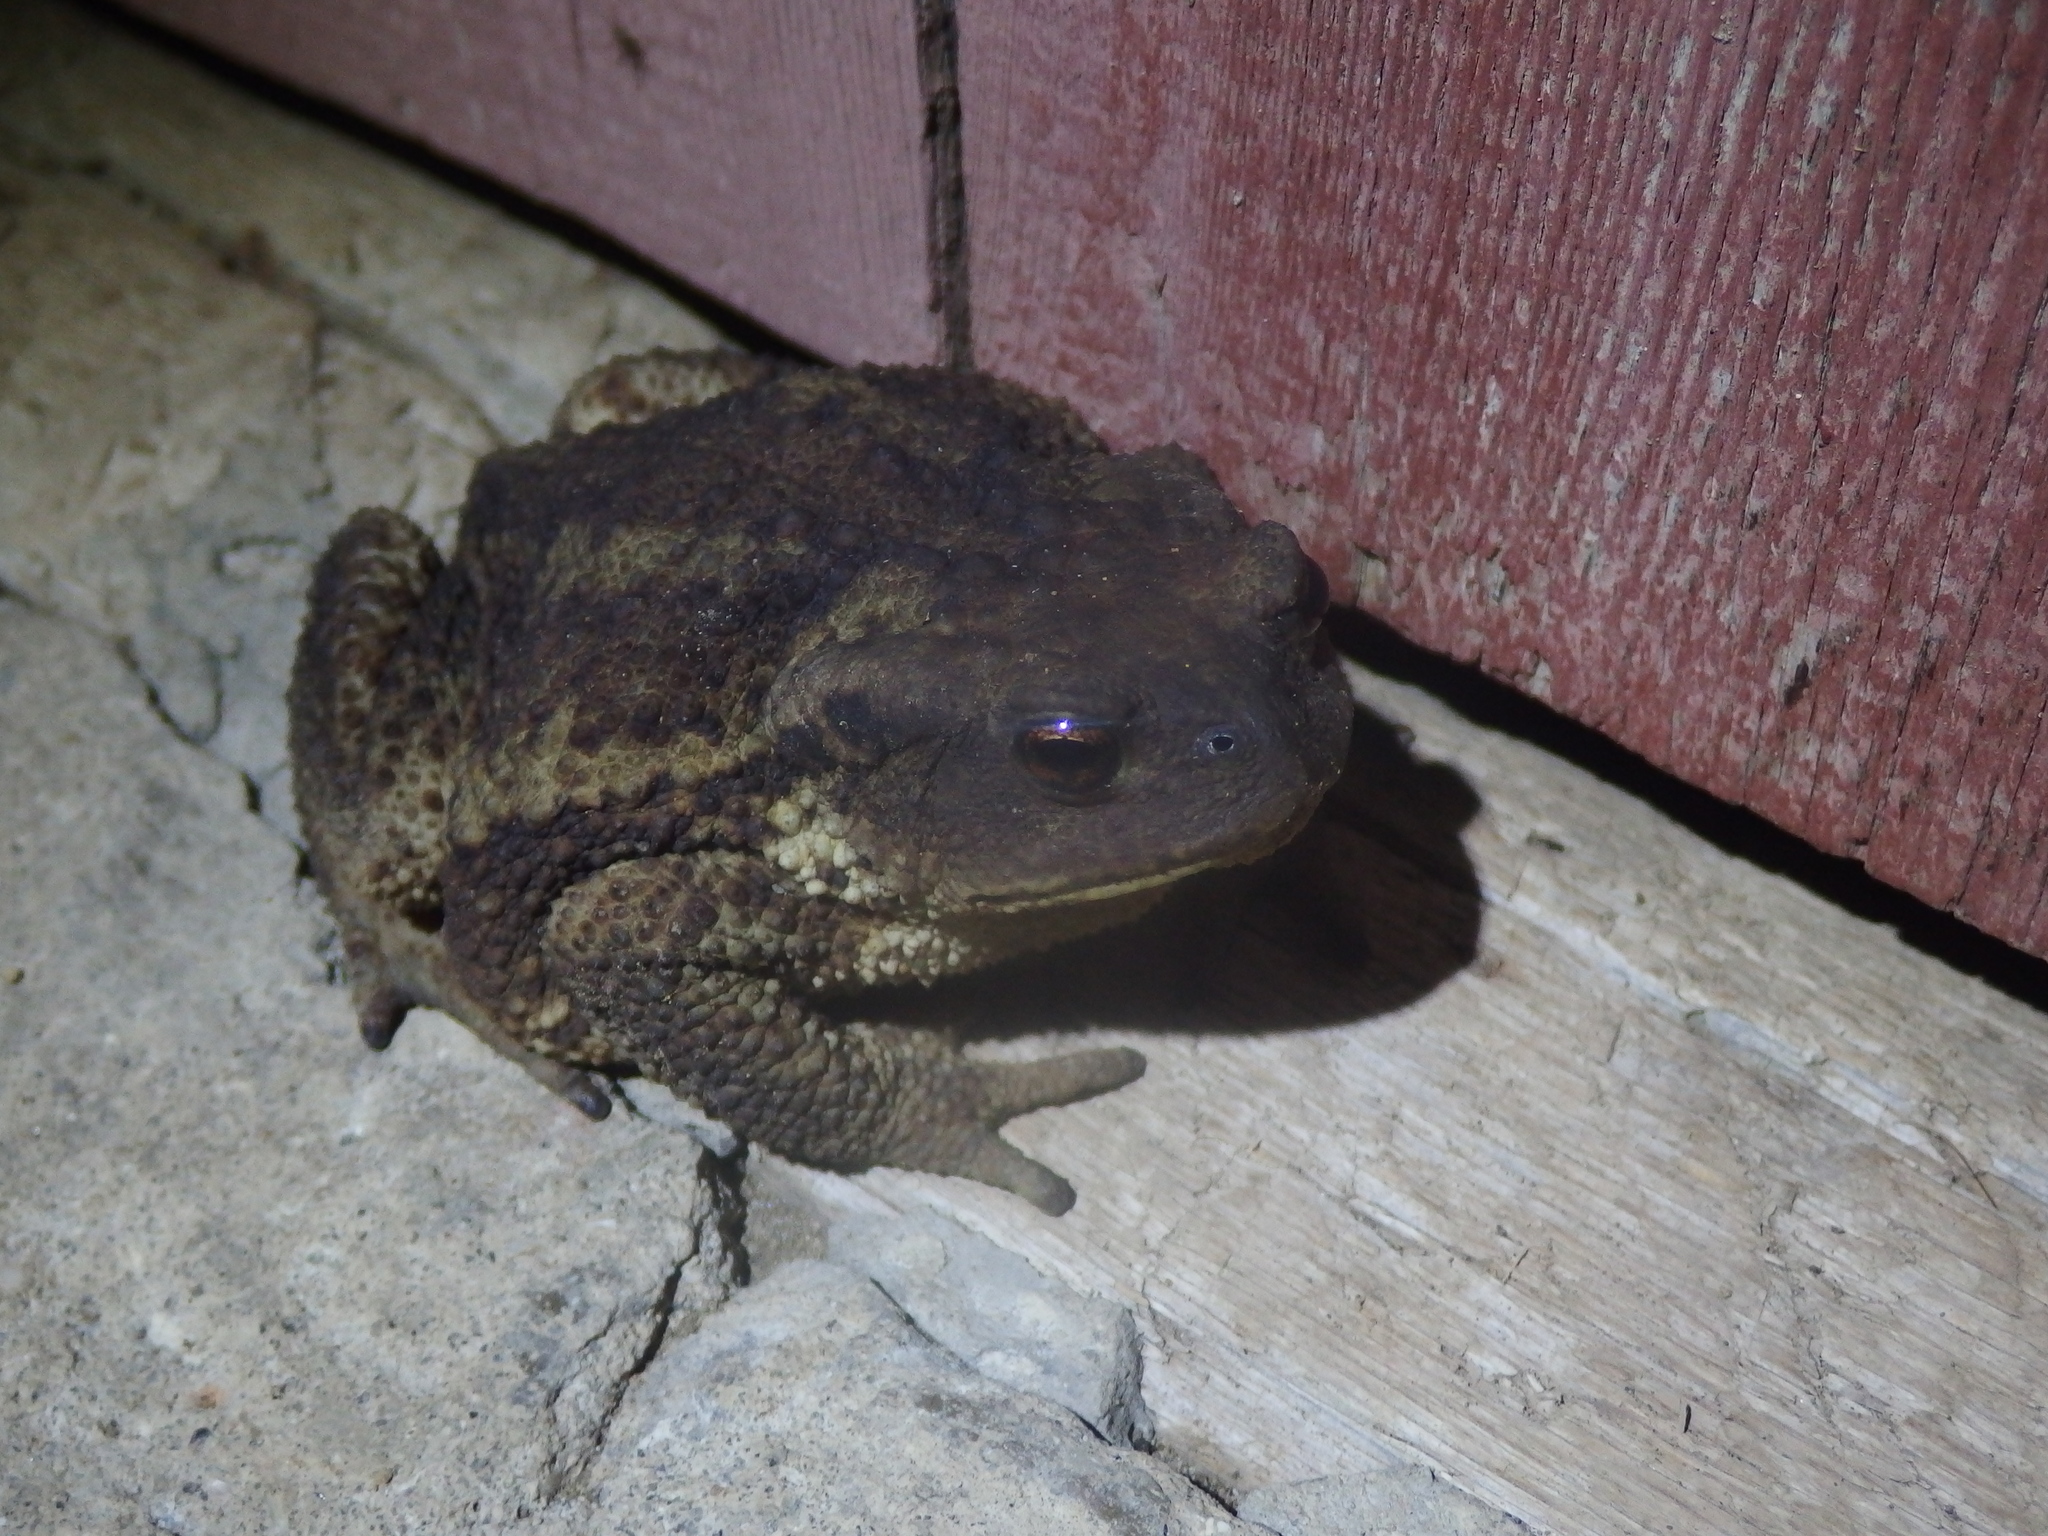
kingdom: Animalia
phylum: Chordata
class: Amphibia
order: Anura
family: Bufonidae
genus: Bufo
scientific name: Bufo verrucosissimus
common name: Caucasian toad
